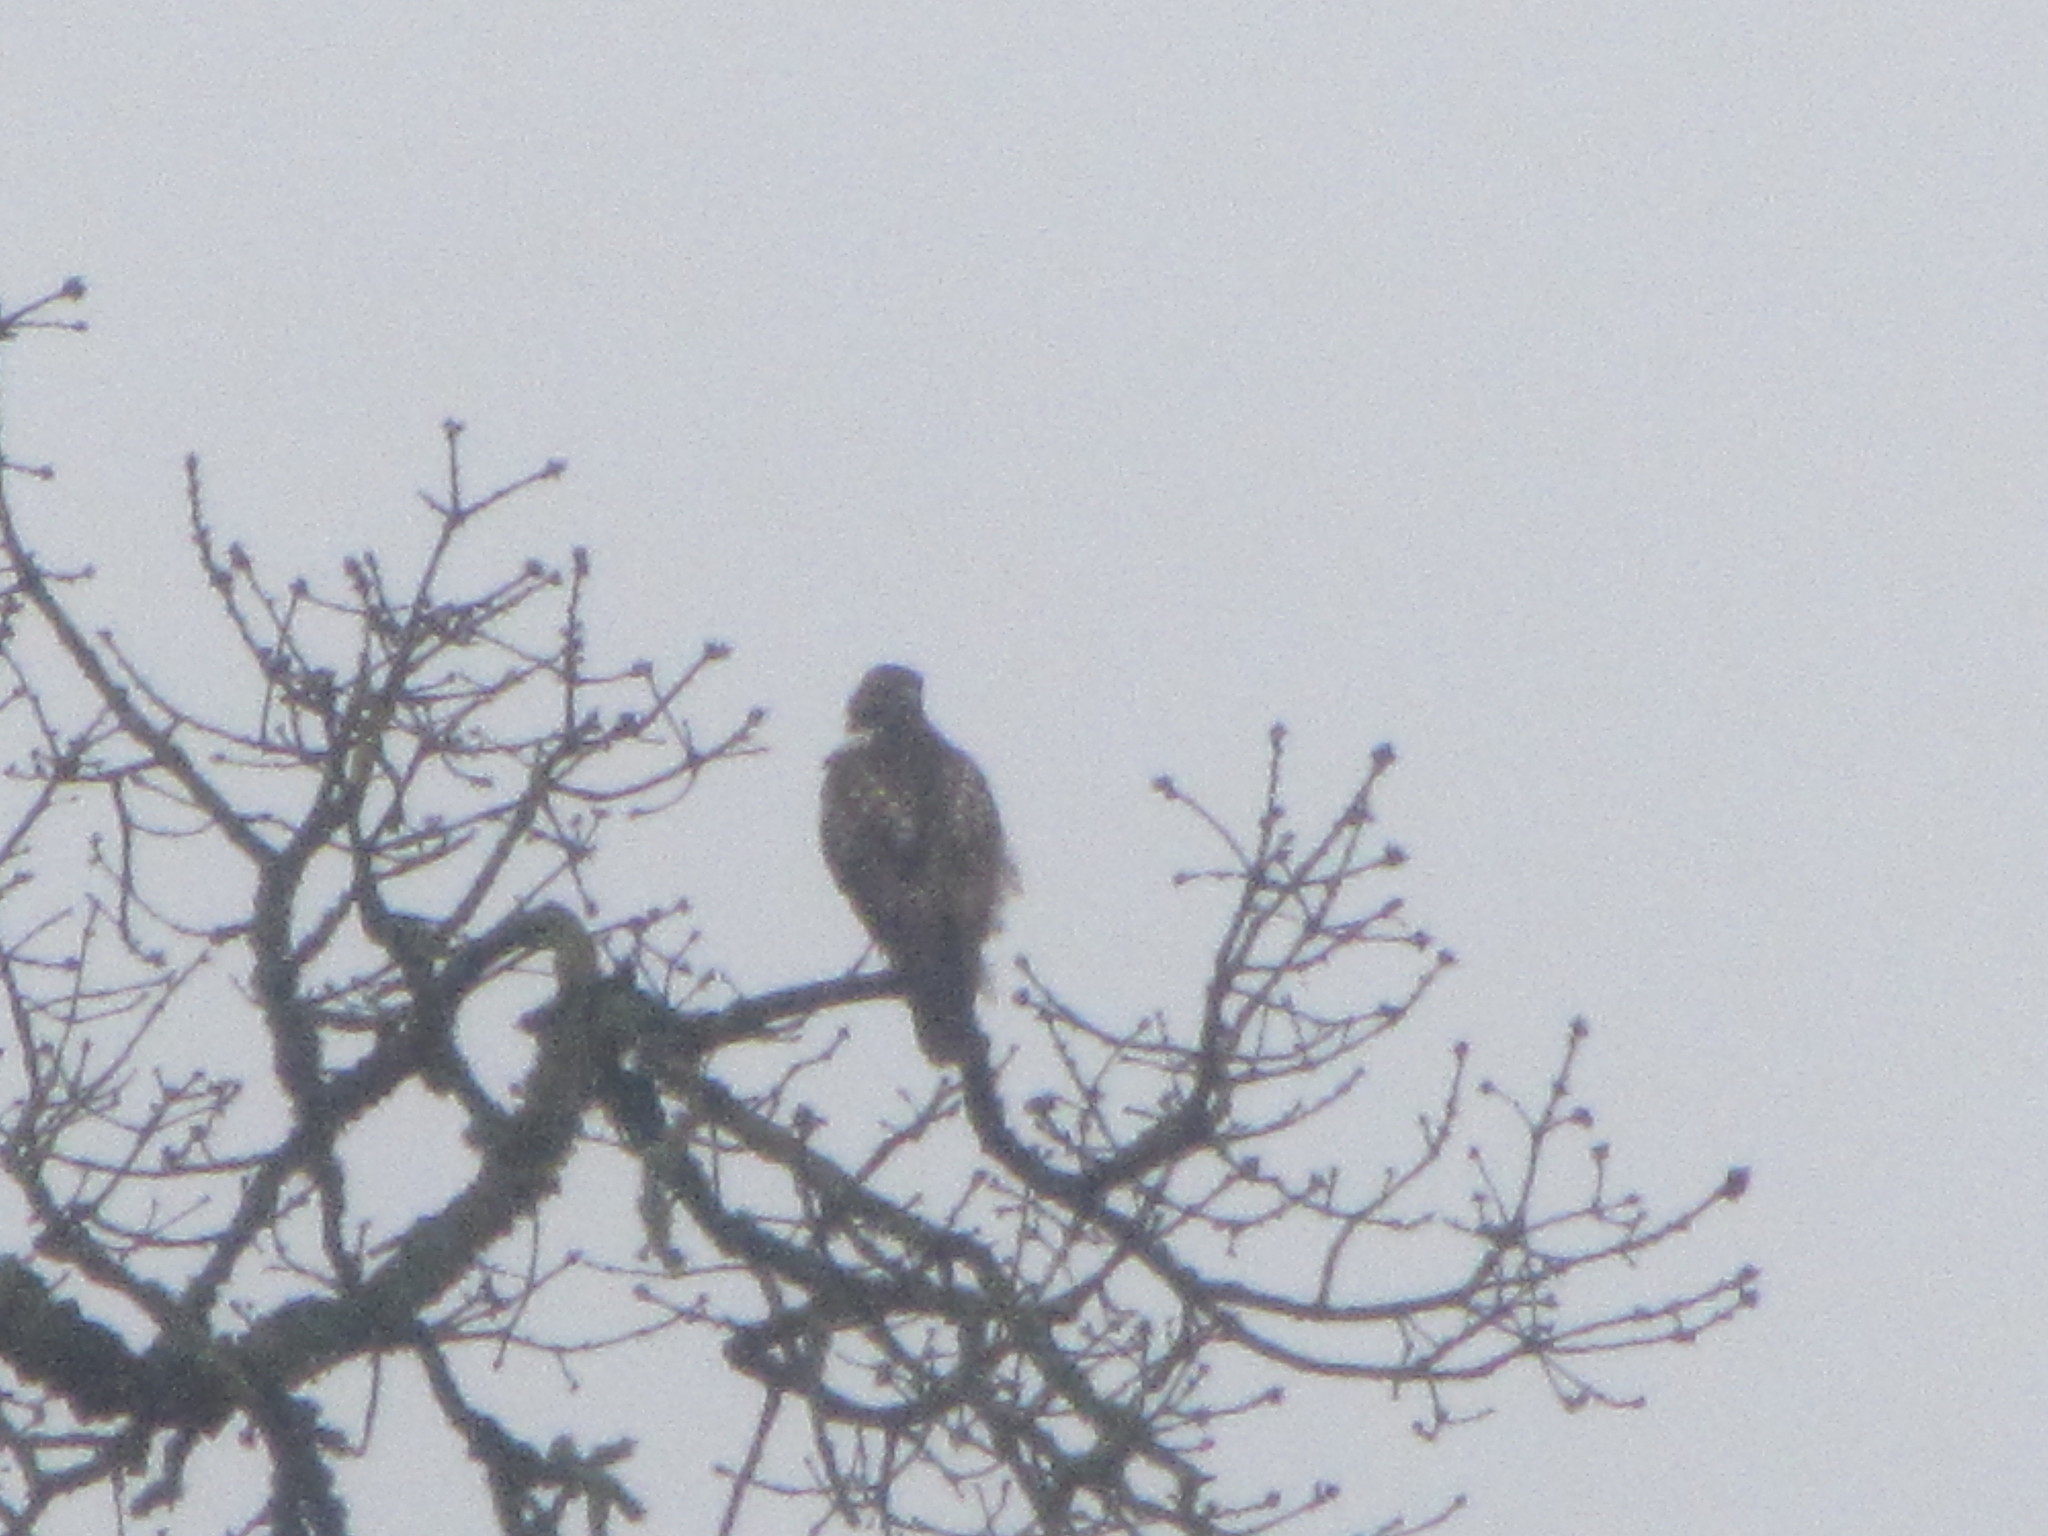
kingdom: Animalia
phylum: Chordata
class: Aves
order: Accipitriformes
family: Accipitridae
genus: Buteo
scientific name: Buteo jamaicensis
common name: Red-tailed hawk
